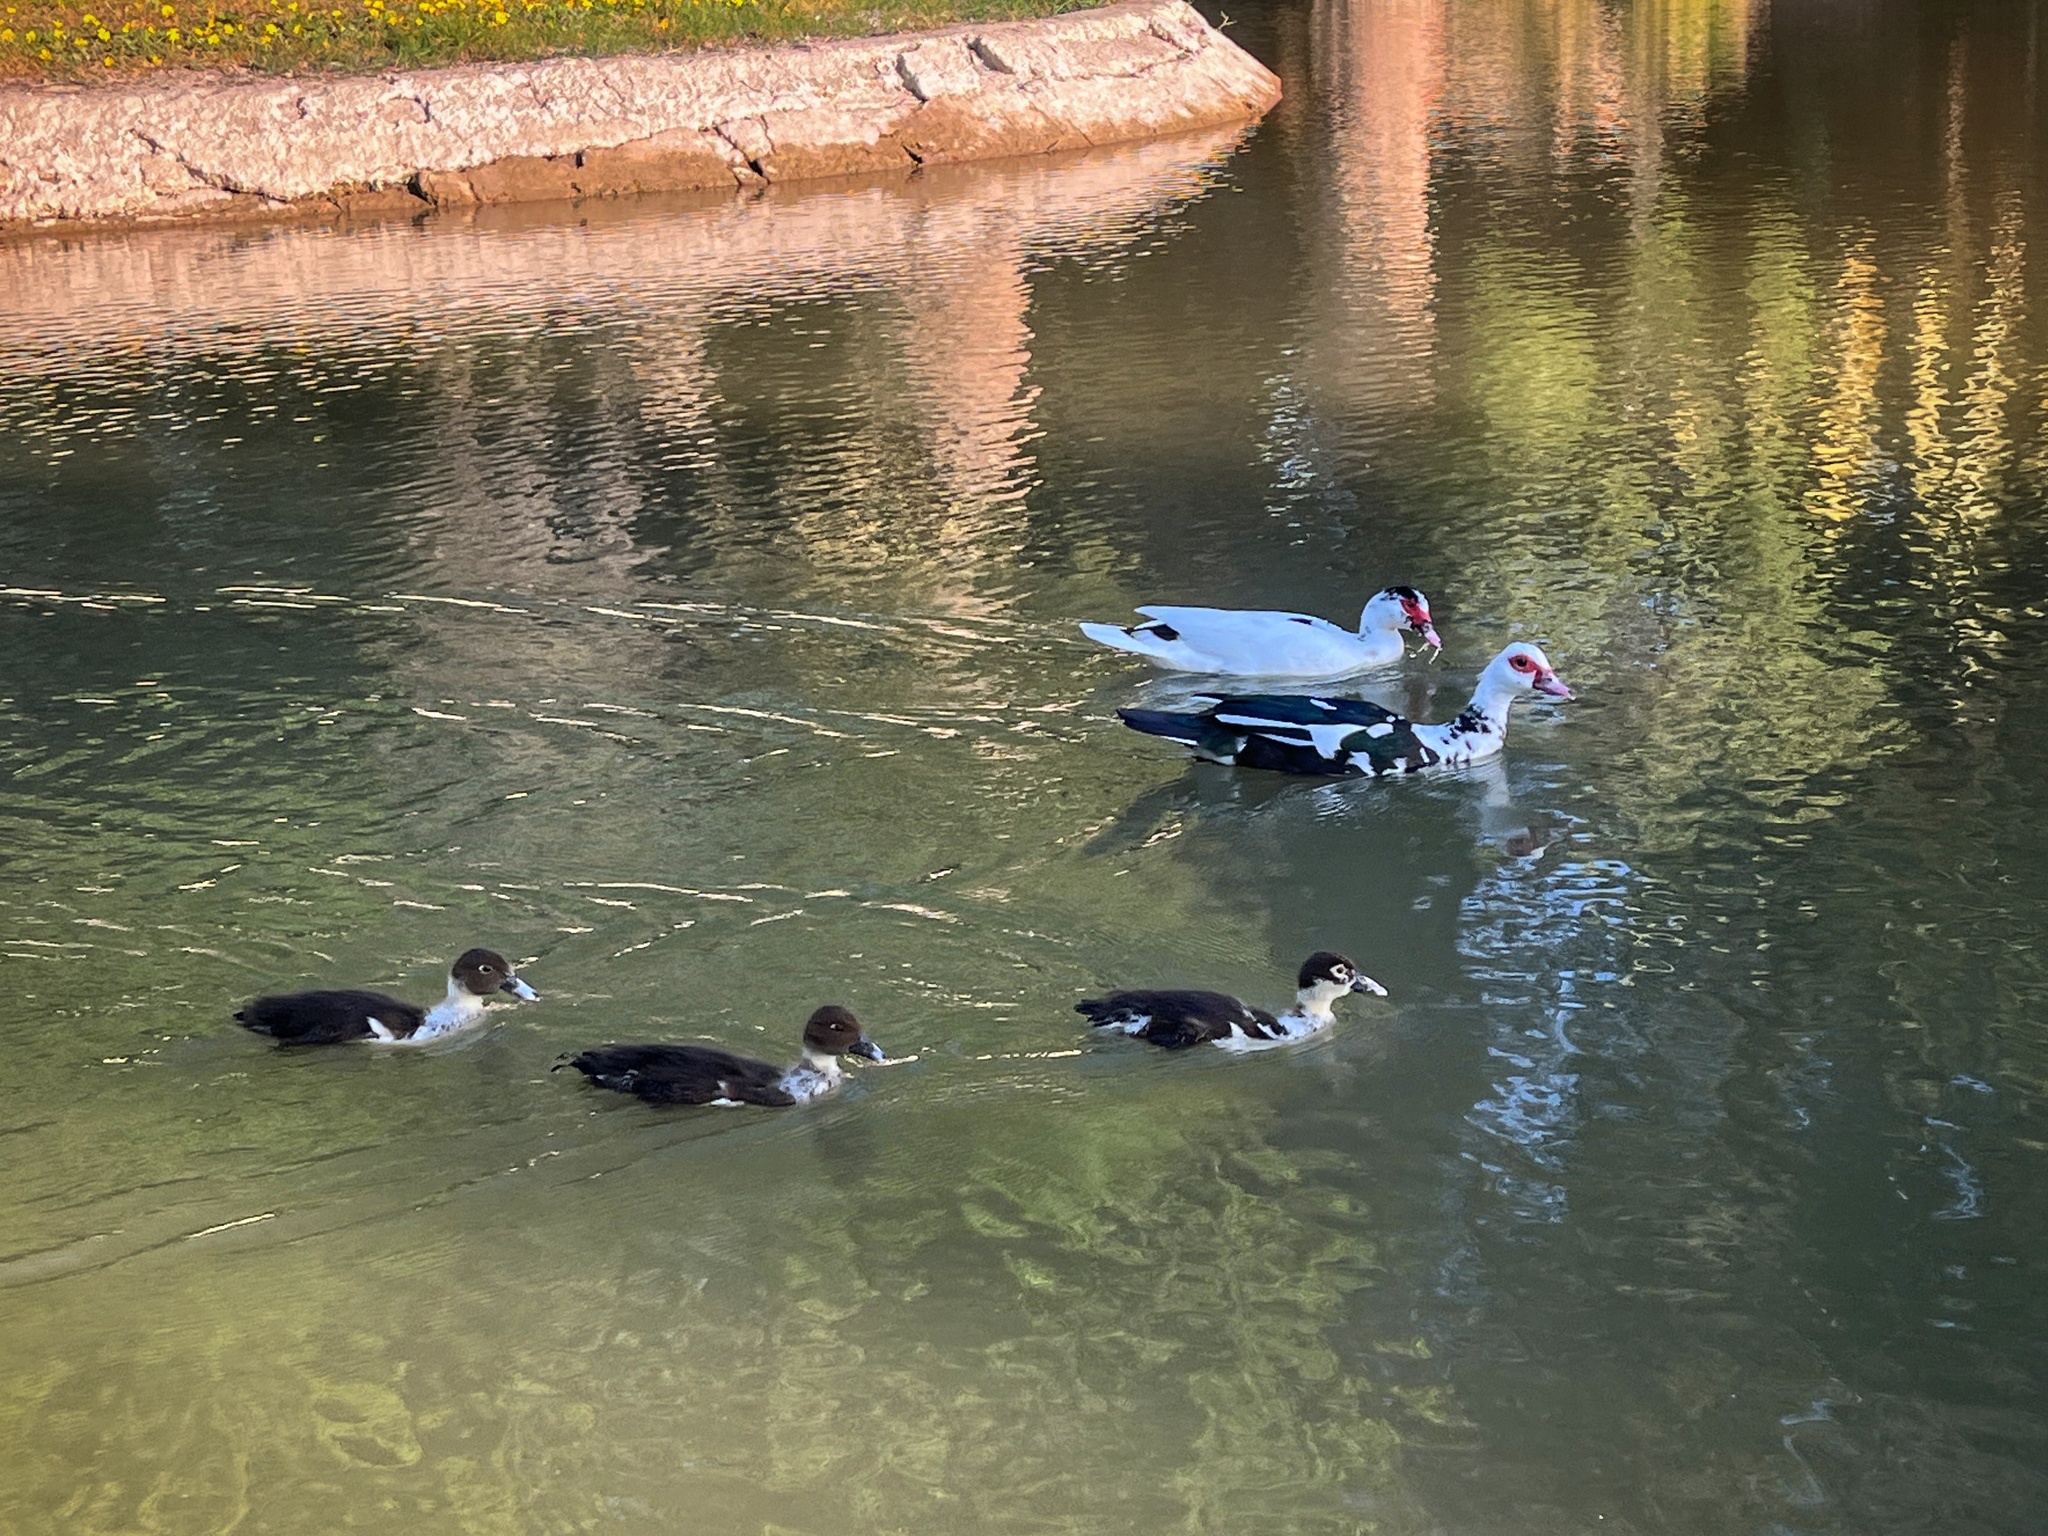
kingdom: Animalia
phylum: Chordata
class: Aves
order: Anseriformes
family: Anatidae
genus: Cairina
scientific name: Cairina moschata
